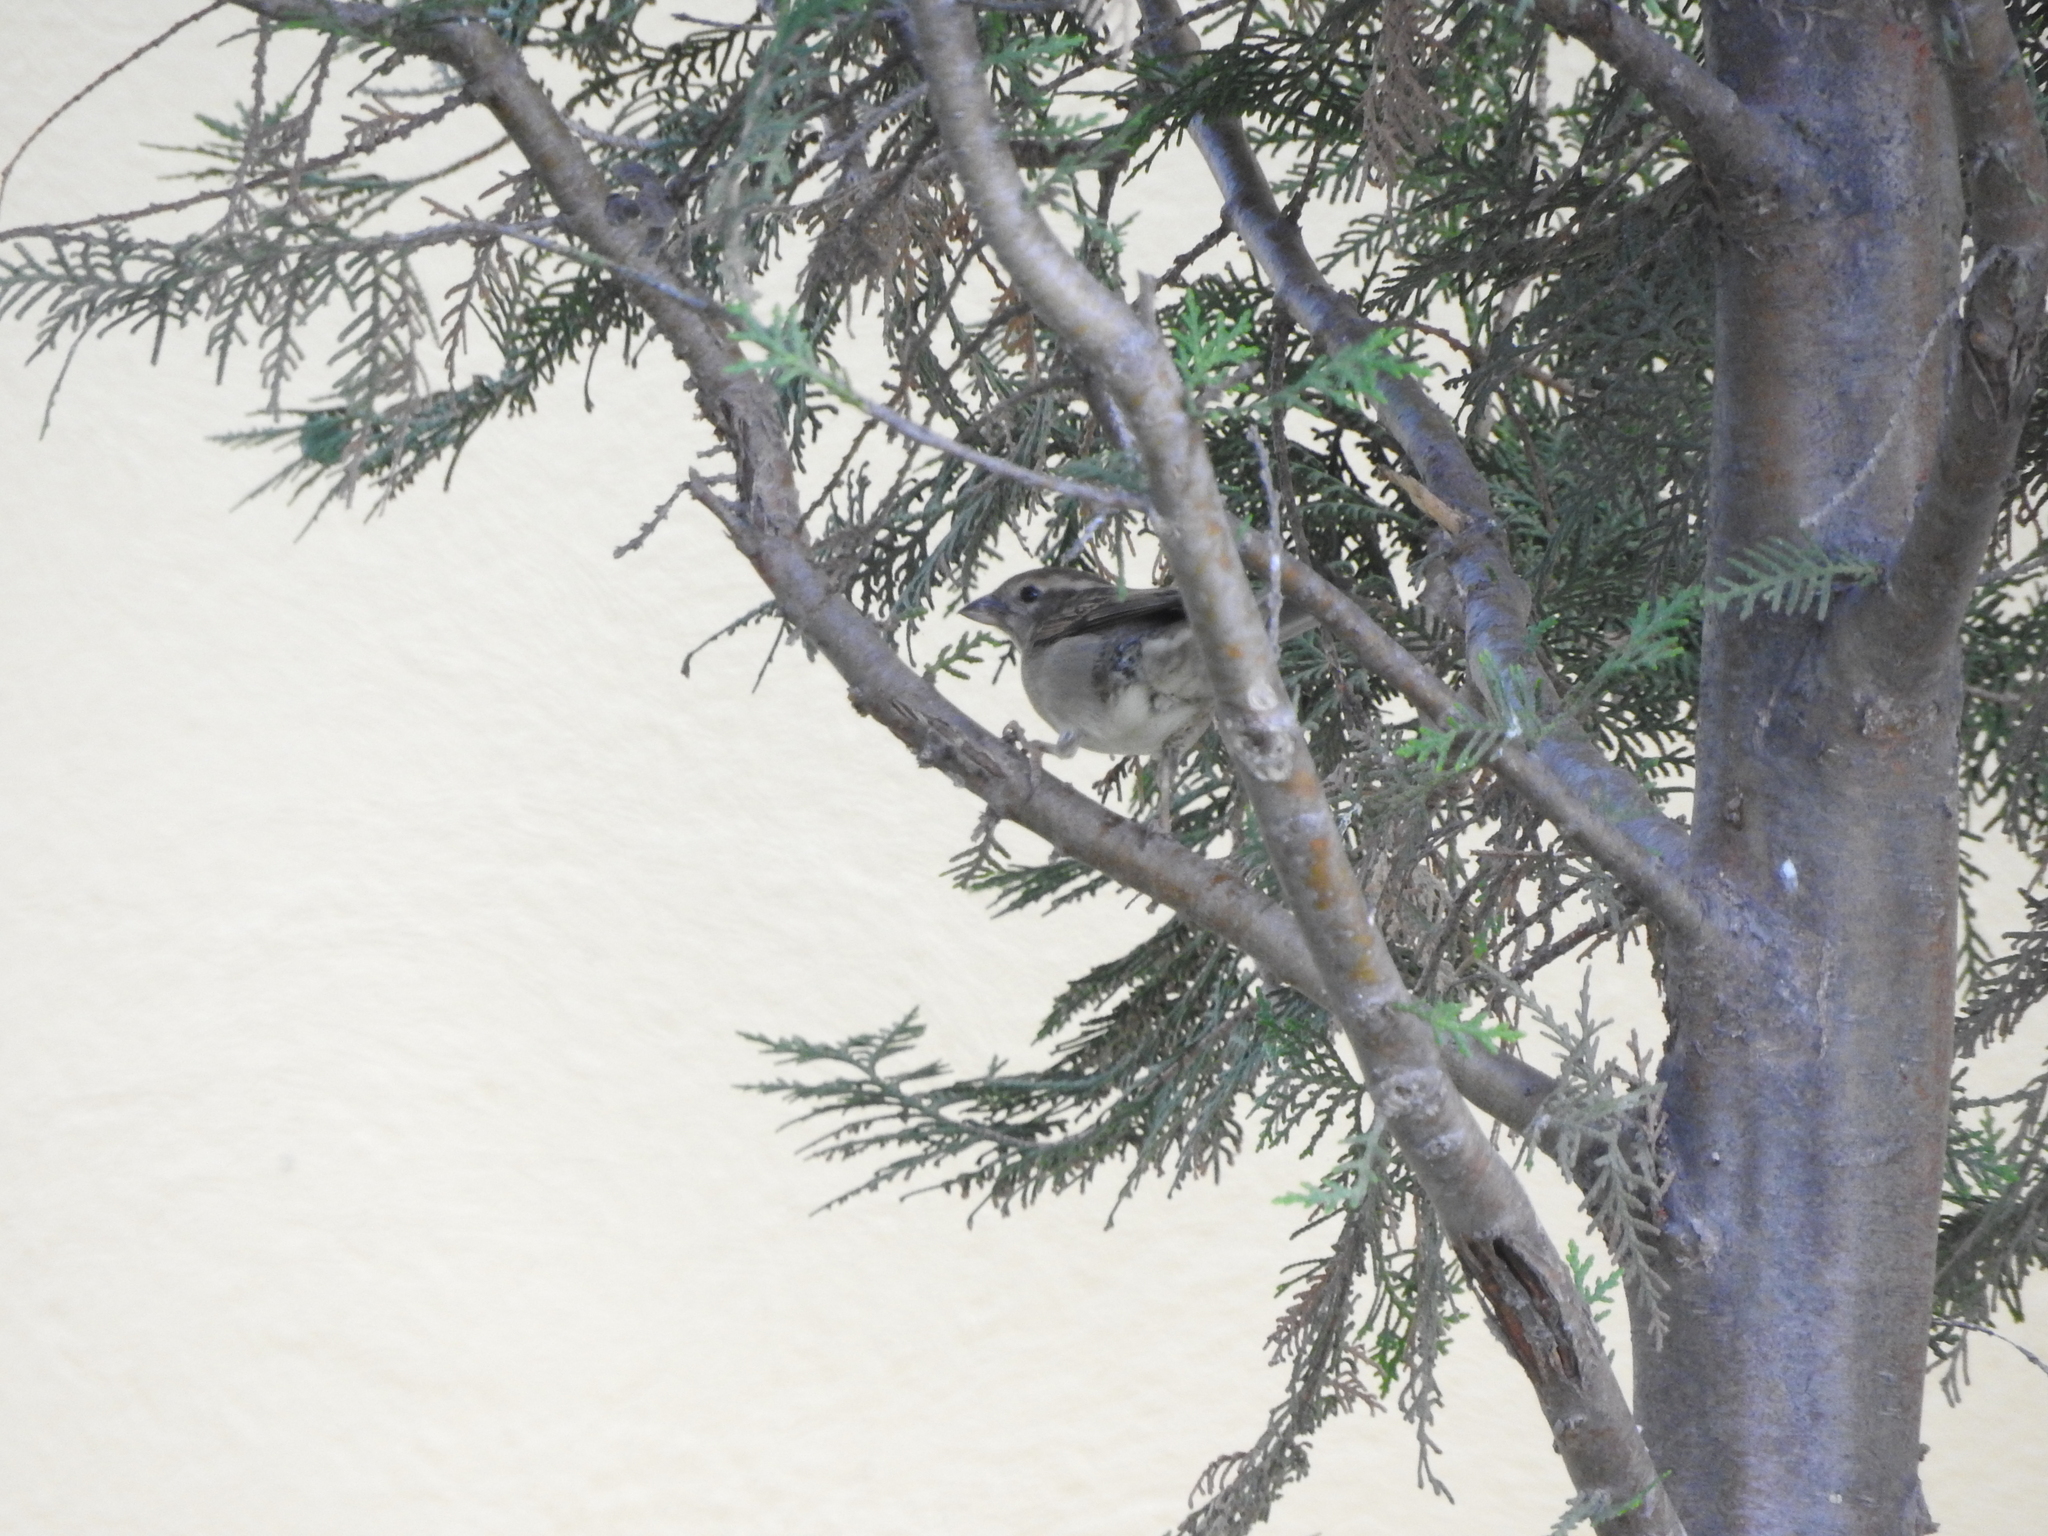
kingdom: Animalia
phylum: Chordata
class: Aves
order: Passeriformes
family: Passeridae
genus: Passer
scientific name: Passer domesticus
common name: House sparrow
